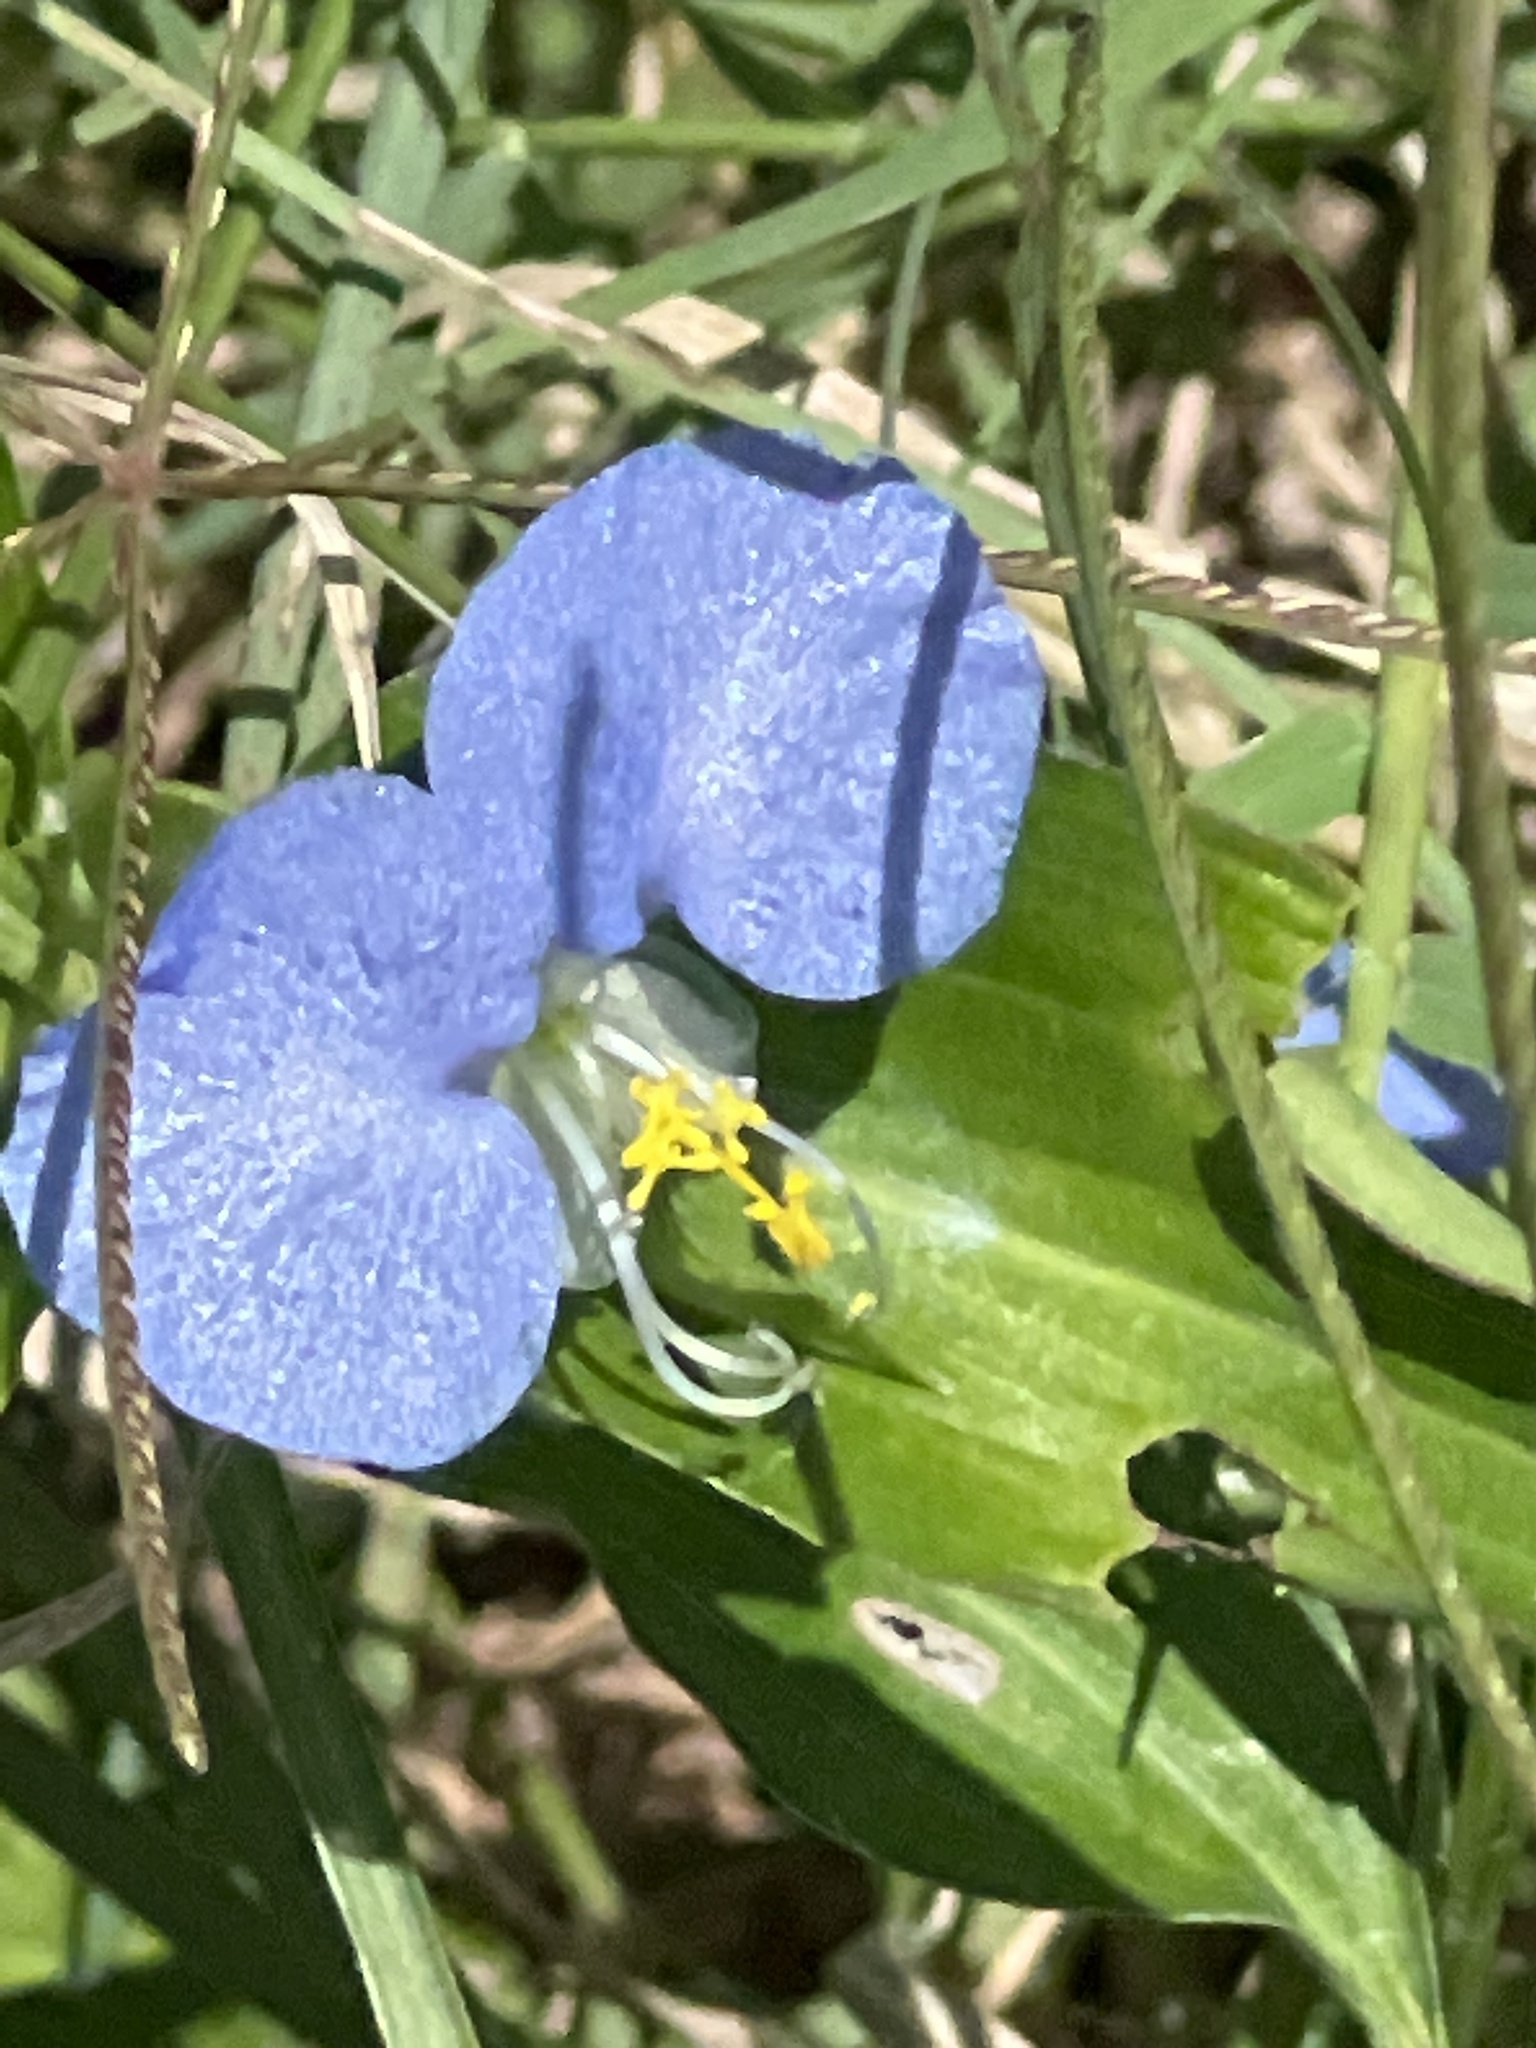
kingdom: Plantae
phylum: Tracheophyta
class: Liliopsida
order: Commelinales
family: Commelinaceae
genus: Commelina
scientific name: Commelina erecta
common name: Blousel blommetjie
